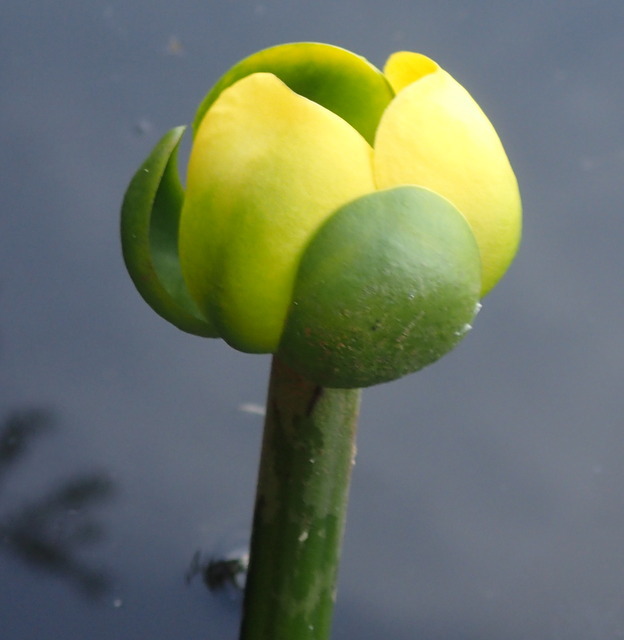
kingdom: Plantae
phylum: Tracheophyta
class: Magnoliopsida
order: Nymphaeales
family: Nymphaeaceae
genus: Nuphar
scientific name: Nuphar advena
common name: Spatter-dock
